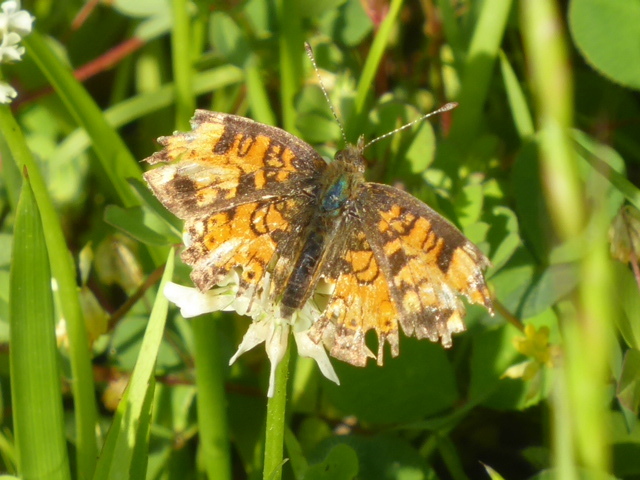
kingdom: Animalia
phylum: Arthropoda
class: Insecta
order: Lepidoptera
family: Nymphalidae
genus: Phyciodes
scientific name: Phyciodes tharos
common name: Pearl crescent
